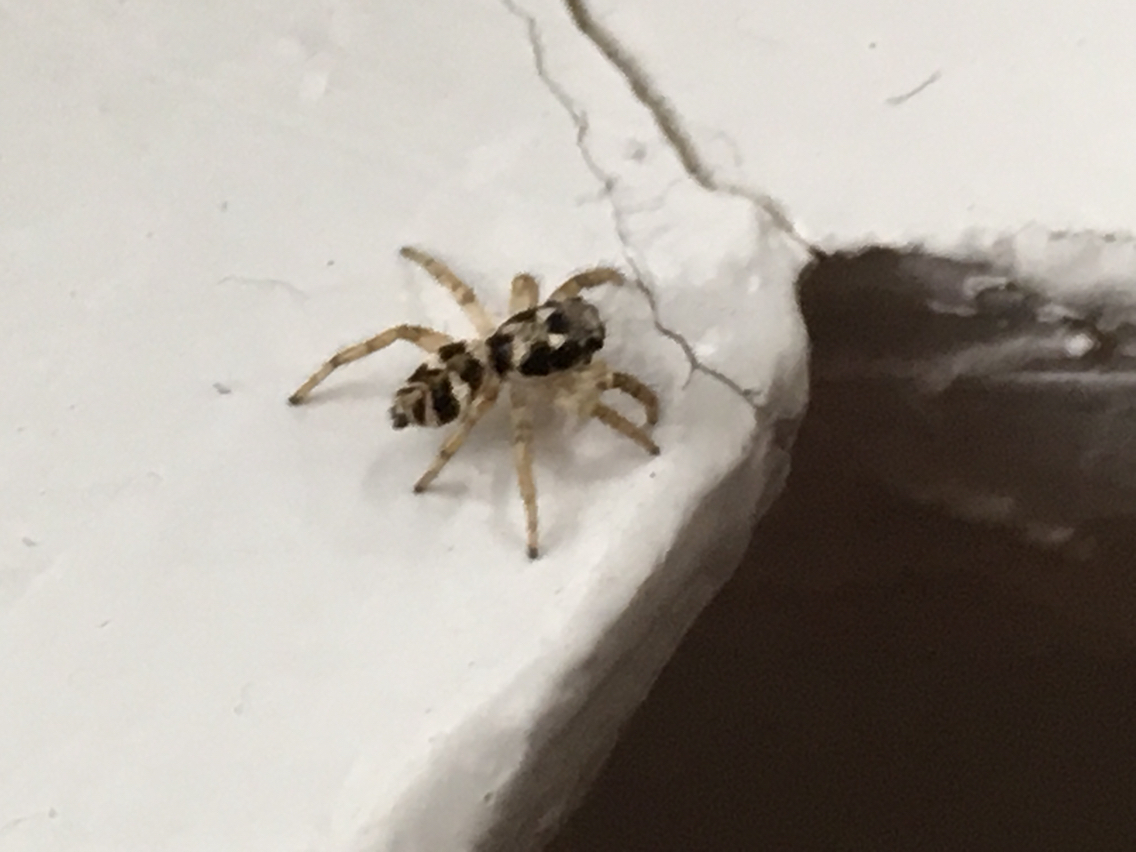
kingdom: Animalia
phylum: Arthropoda
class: Arachnida
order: Araneae
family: Salticidae
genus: Salticus
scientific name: Salticus scenicus
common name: Zebra jumper
